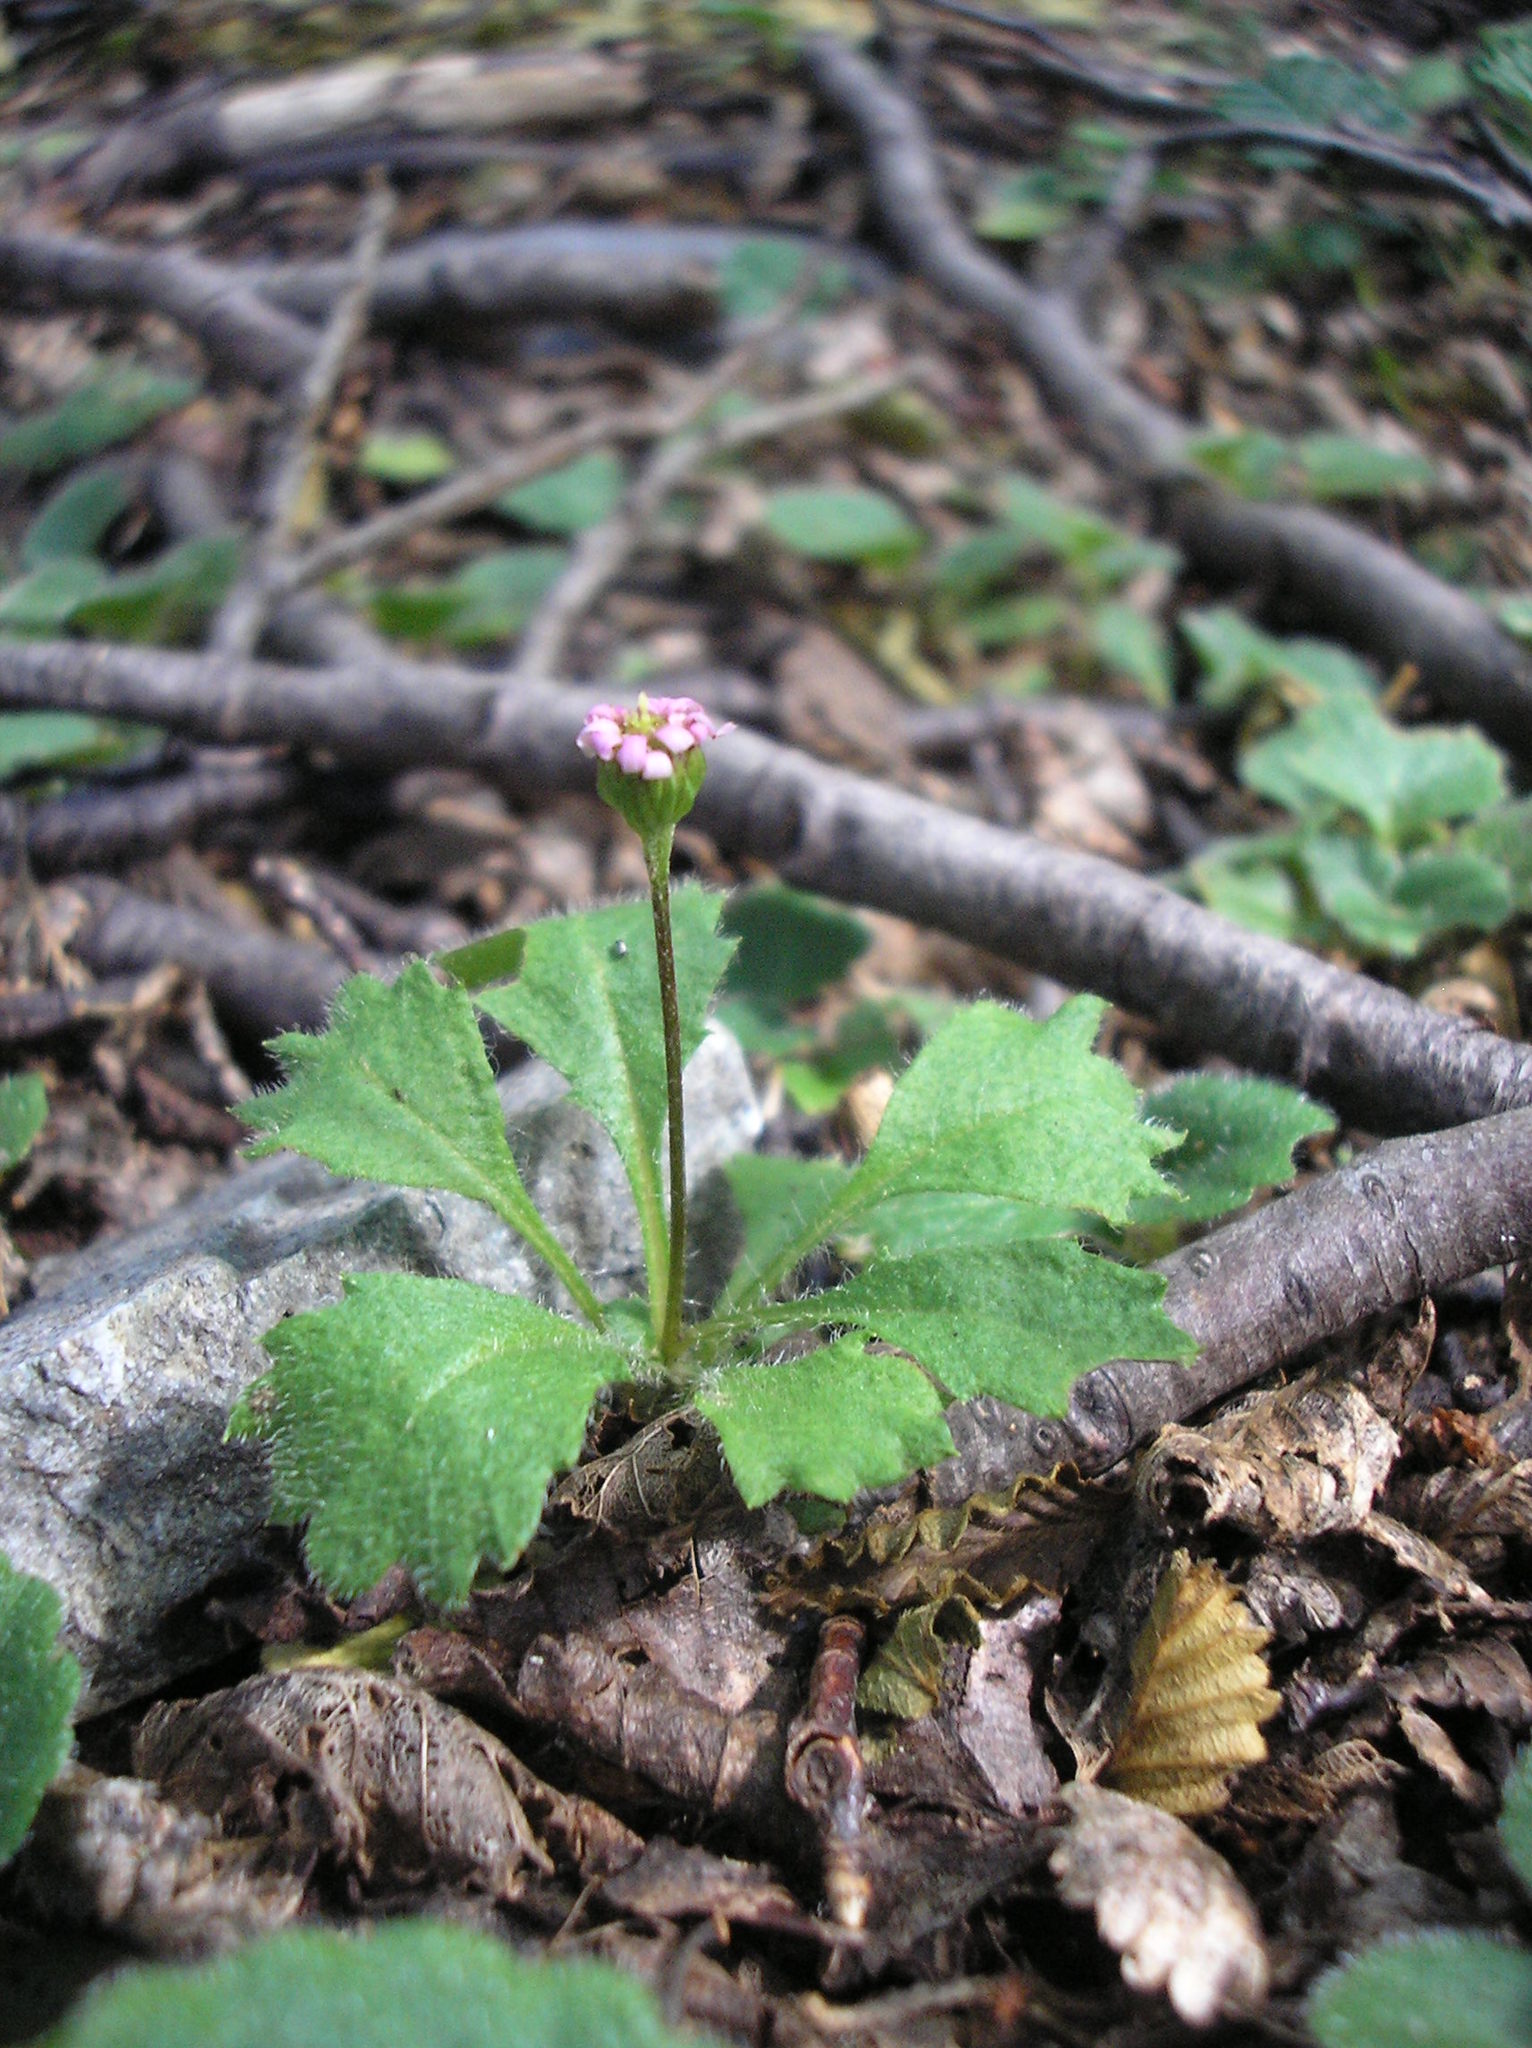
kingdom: Plantae
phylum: Tracheophyta
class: Magnoliopsida
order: Asterales
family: Asteraceae
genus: Lagenophora
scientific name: Lagenophora hariotii
